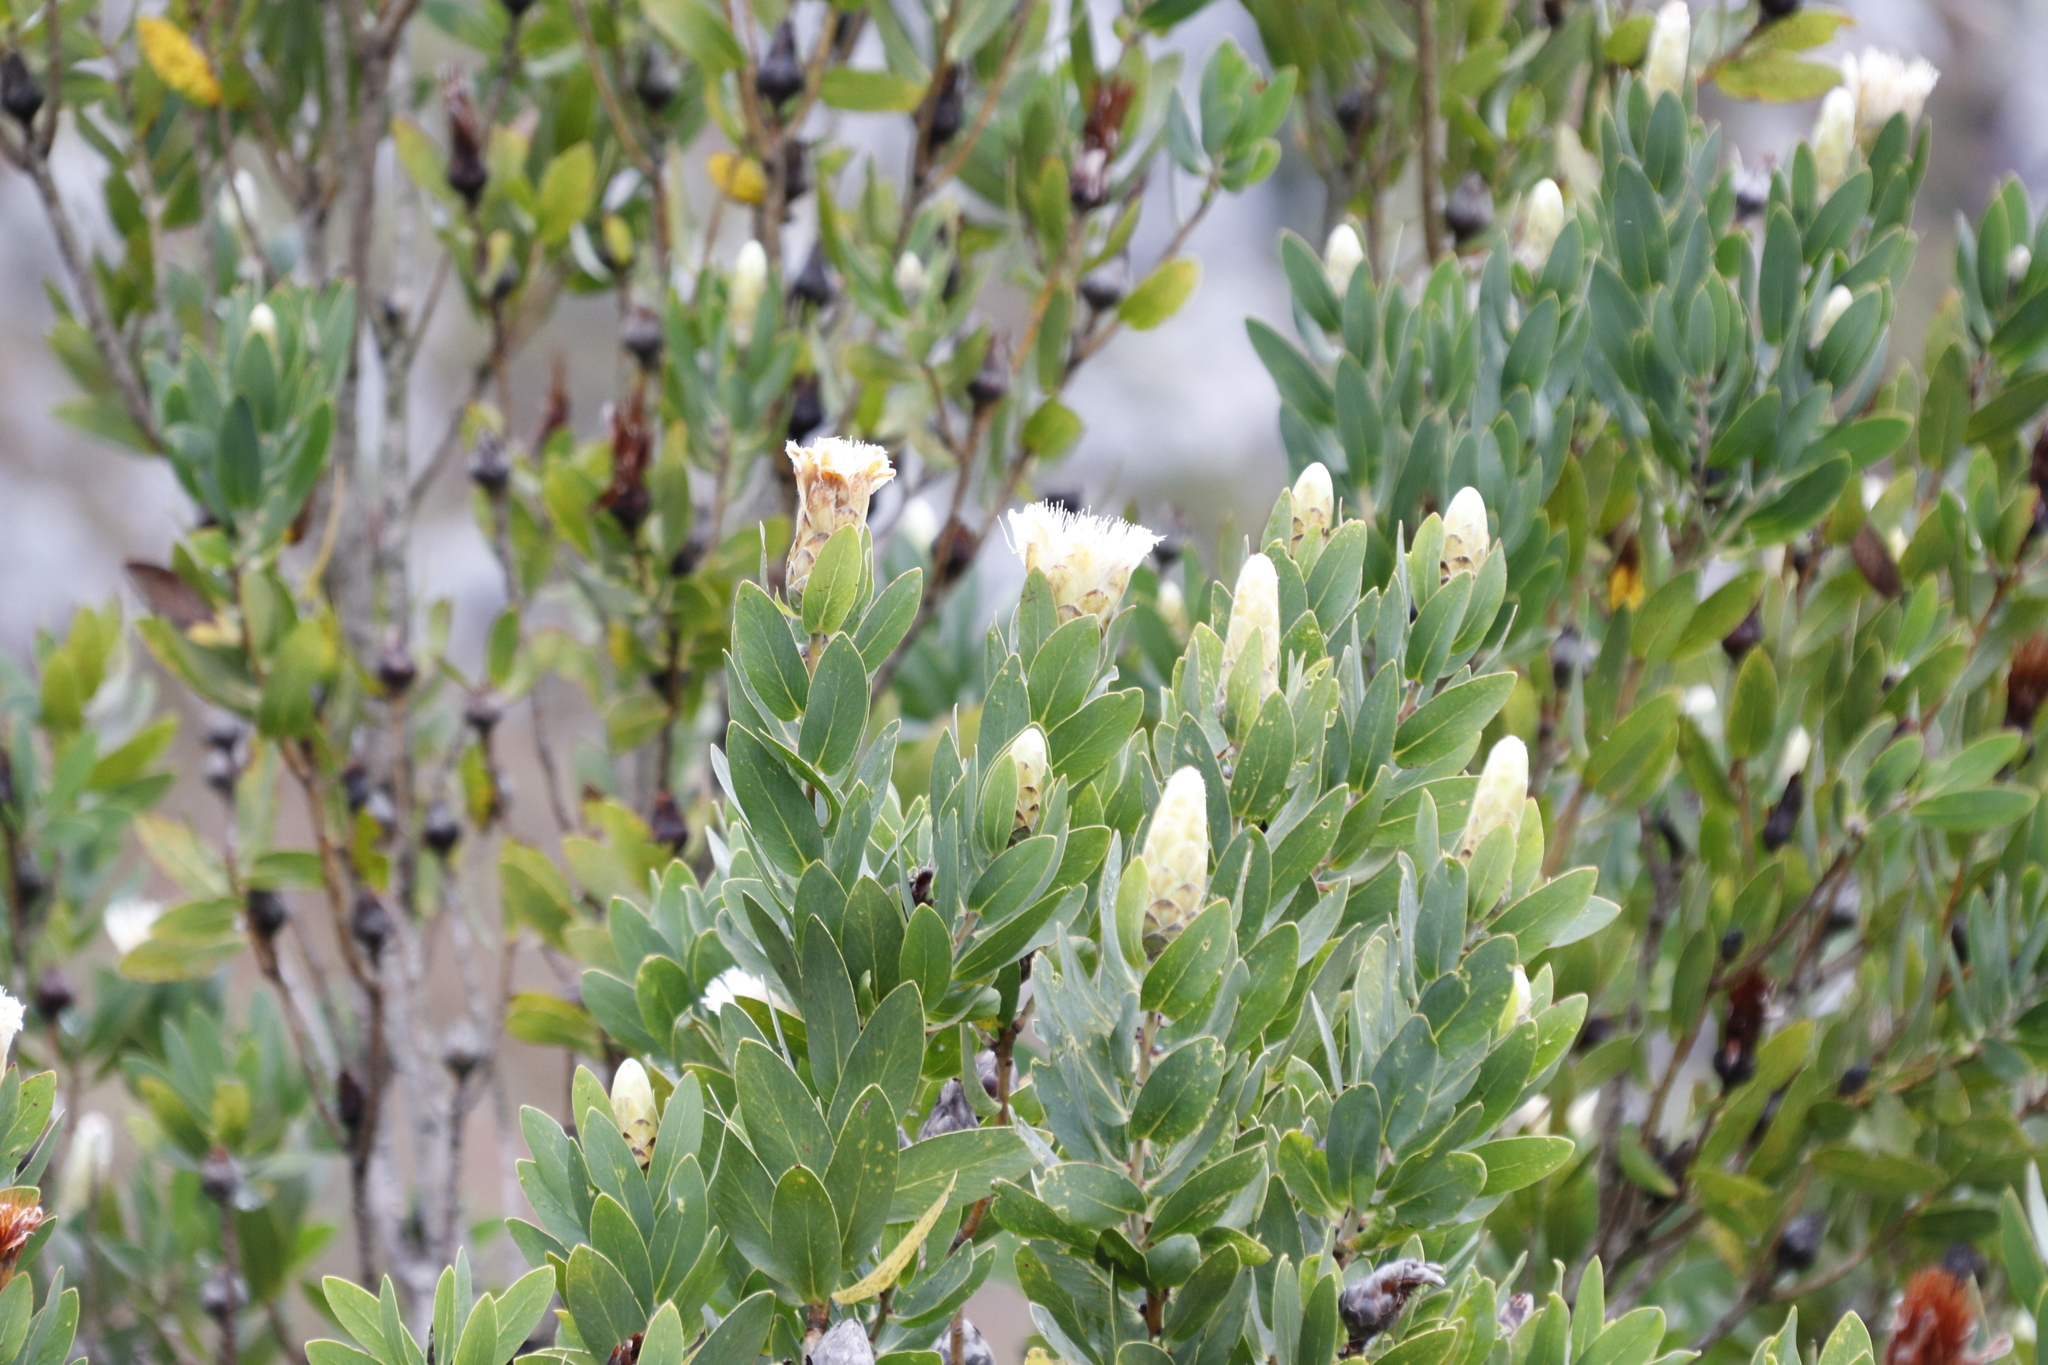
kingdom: Plantae
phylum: Tracheophyta
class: Magnoliopsida
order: Proteales
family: Proteaceae
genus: Protea
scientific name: Protea lacticolor
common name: Hottentot sugarbush
